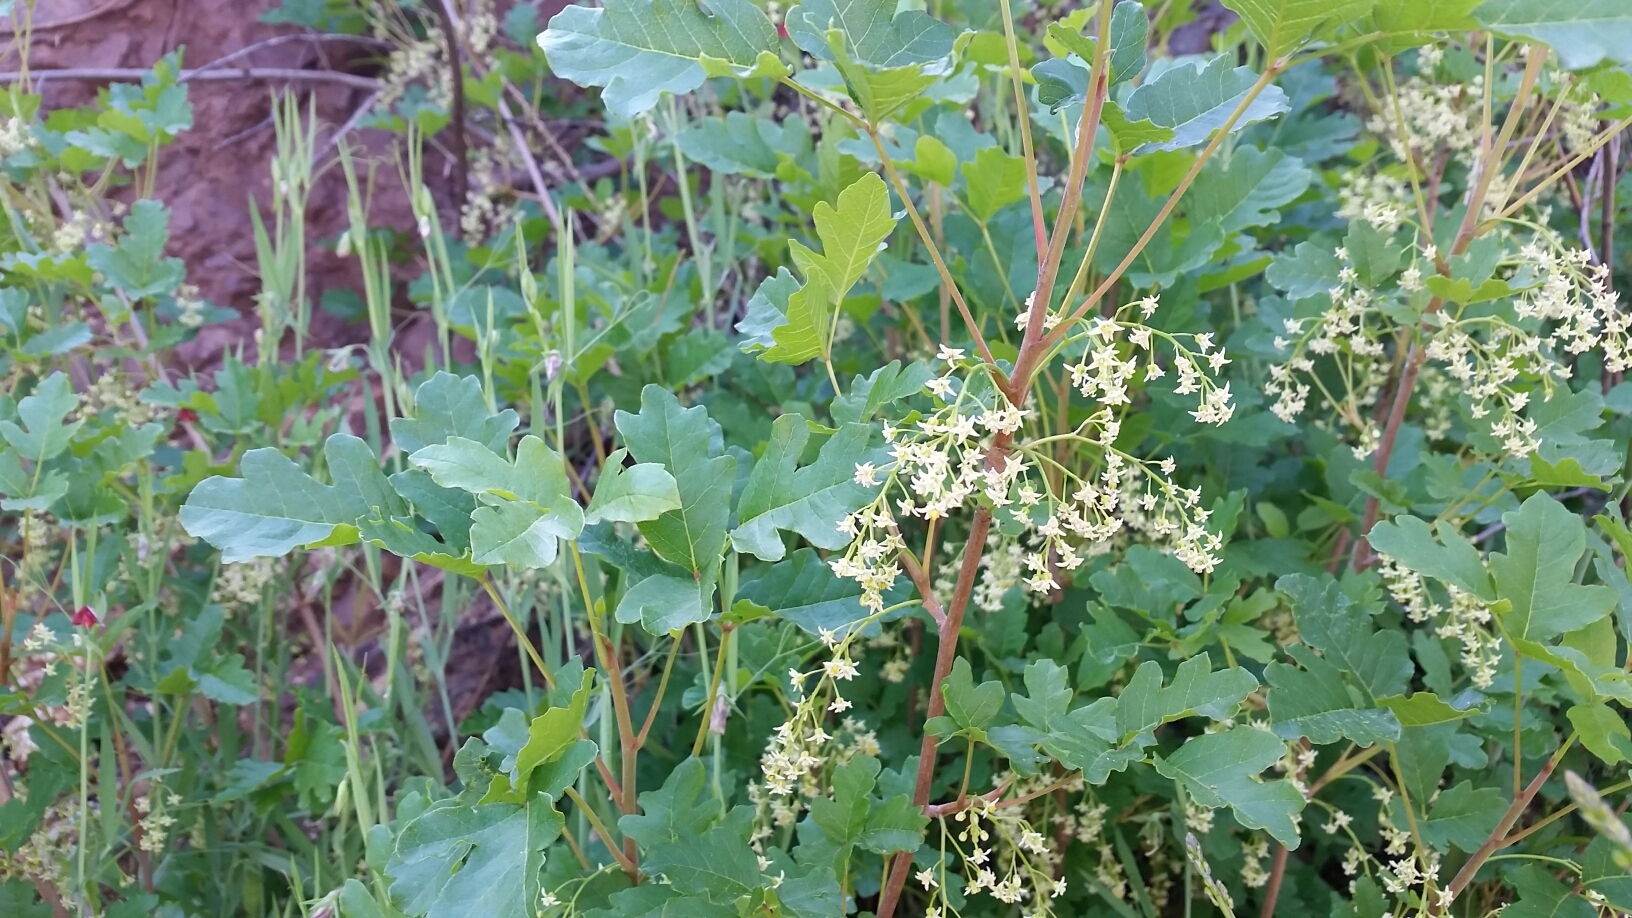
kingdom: Plantae
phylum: Tracheophyta
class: Magnoliopsida
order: Sapindales
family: Anacardiaceae
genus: Toxicodendron
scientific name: Toxicodendron diversilobum
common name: Pacific poison-oak
